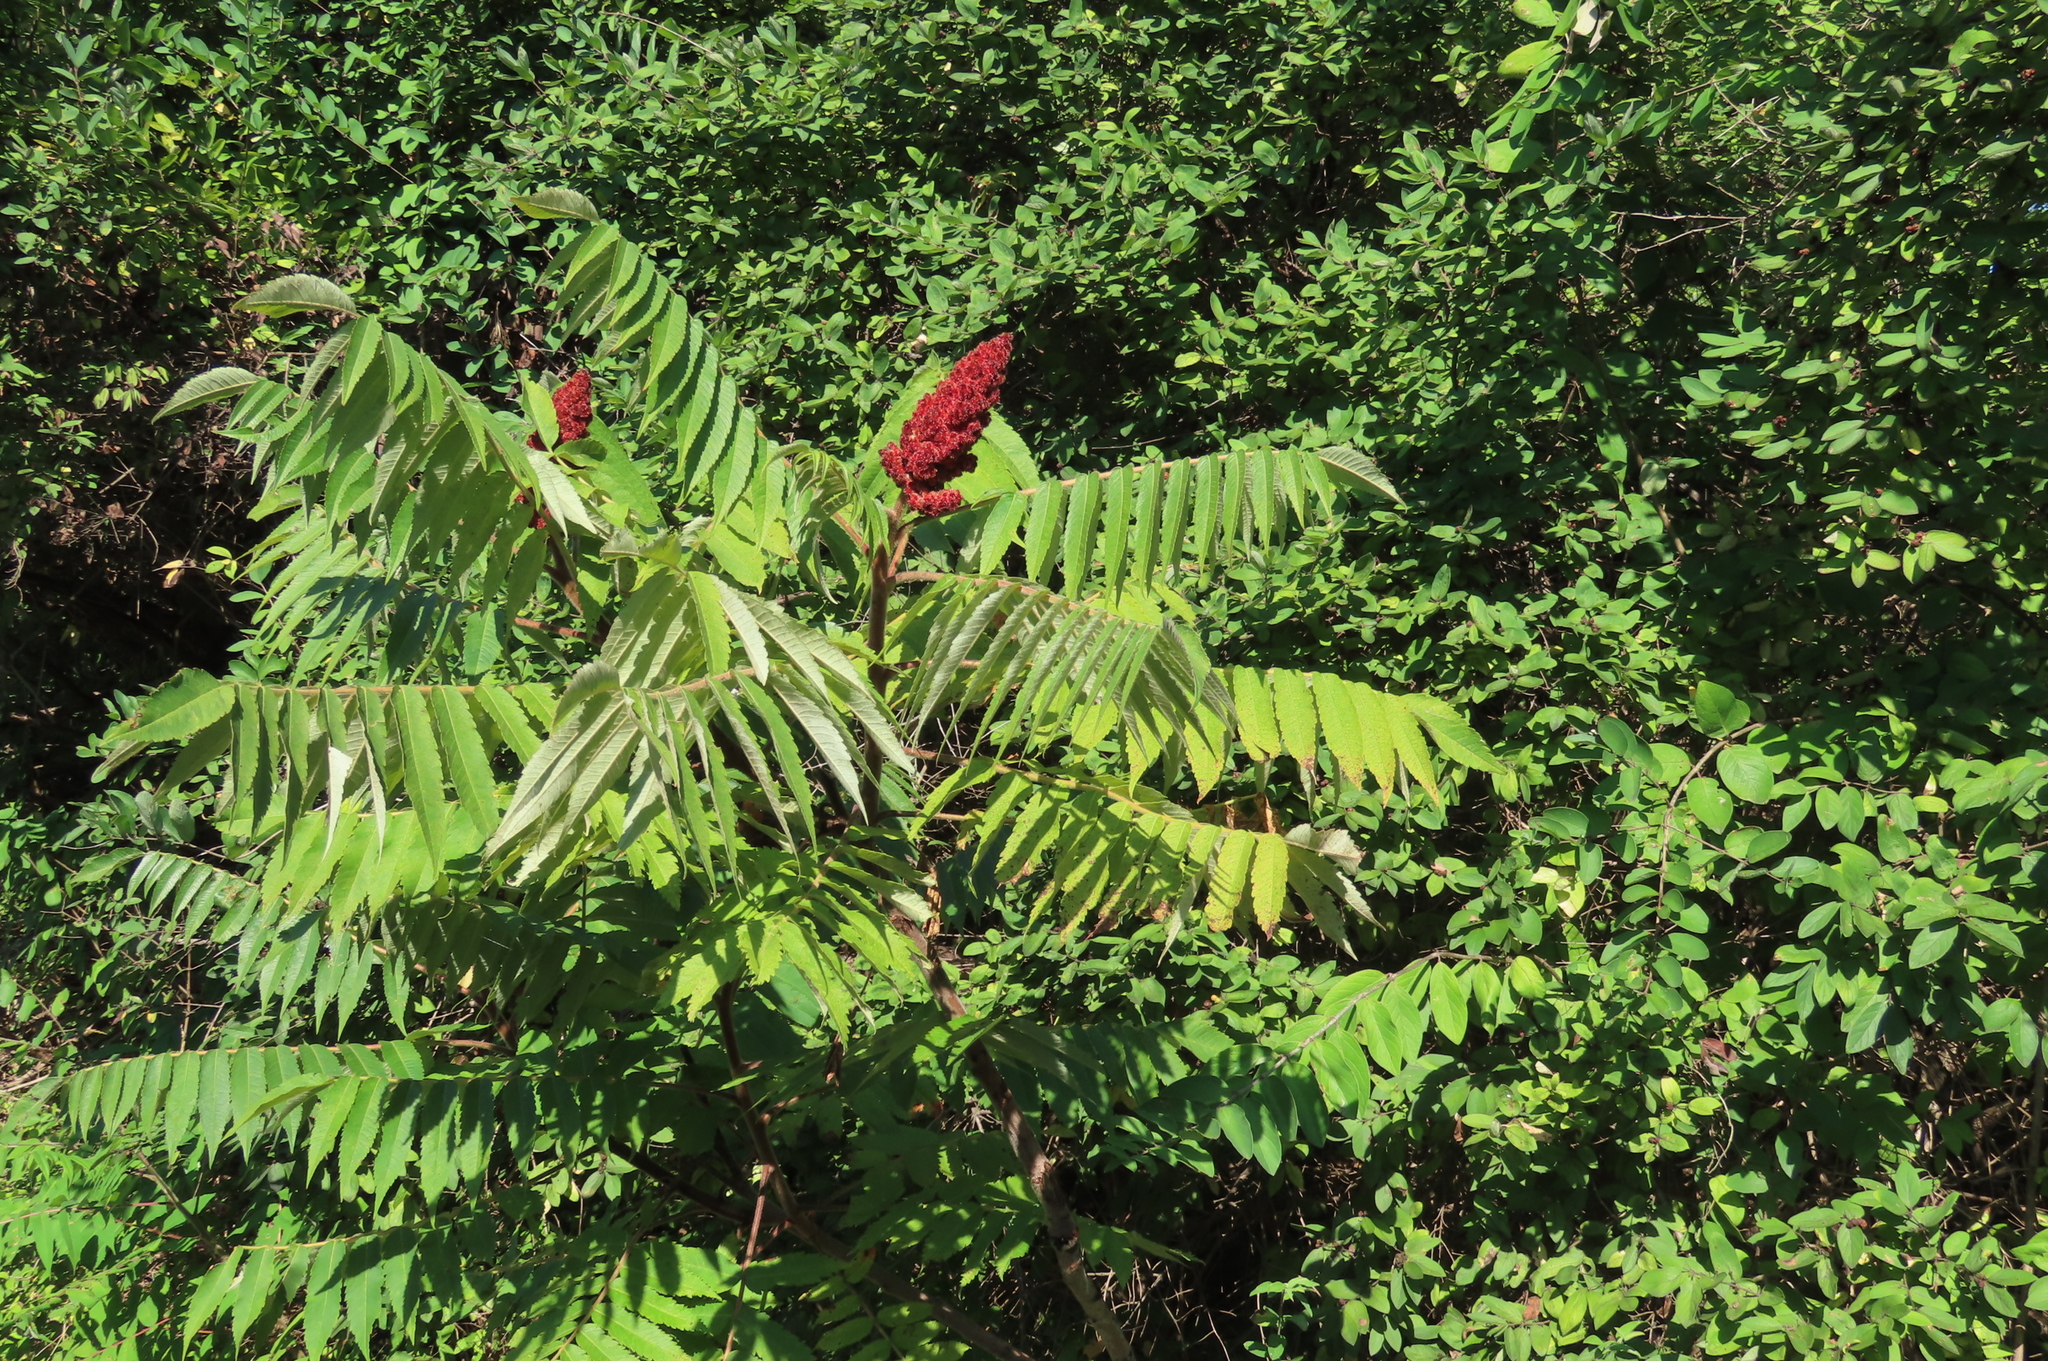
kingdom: Plantae
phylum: Tracheophyta
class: Magnoliopsida
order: Sapindales
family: Anacardiaceae
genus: Rhus
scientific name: Rhus typhina
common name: Staghorn sumac
